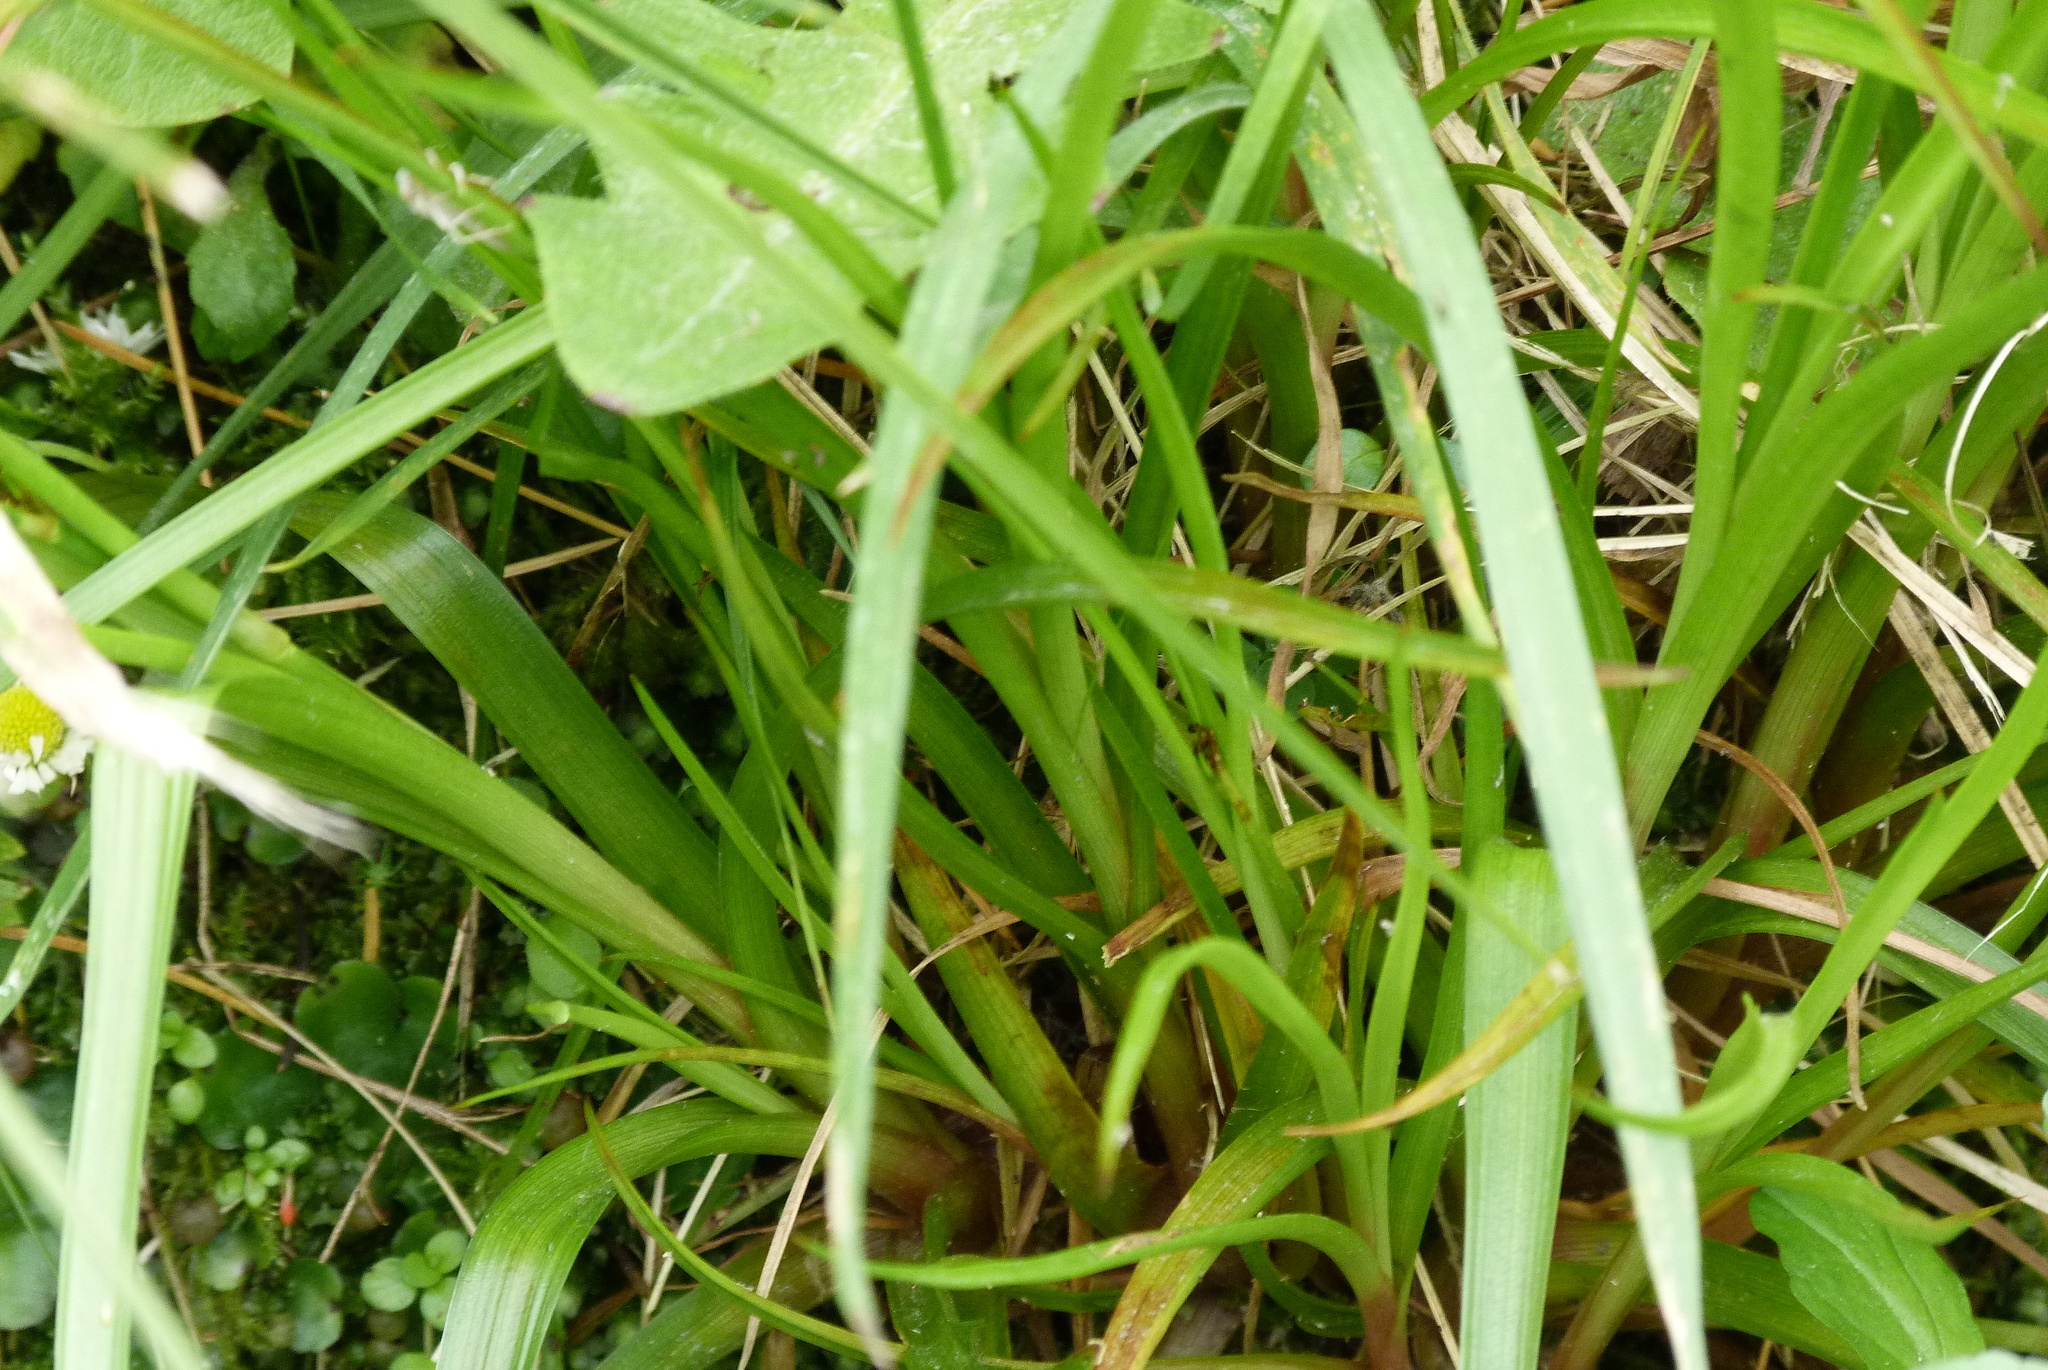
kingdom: Plantae
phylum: Tracheophyta
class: Liliopsida
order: Poales
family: Juncaceae
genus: Juncus
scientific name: Juncus planifolius
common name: Broadleaf rush
